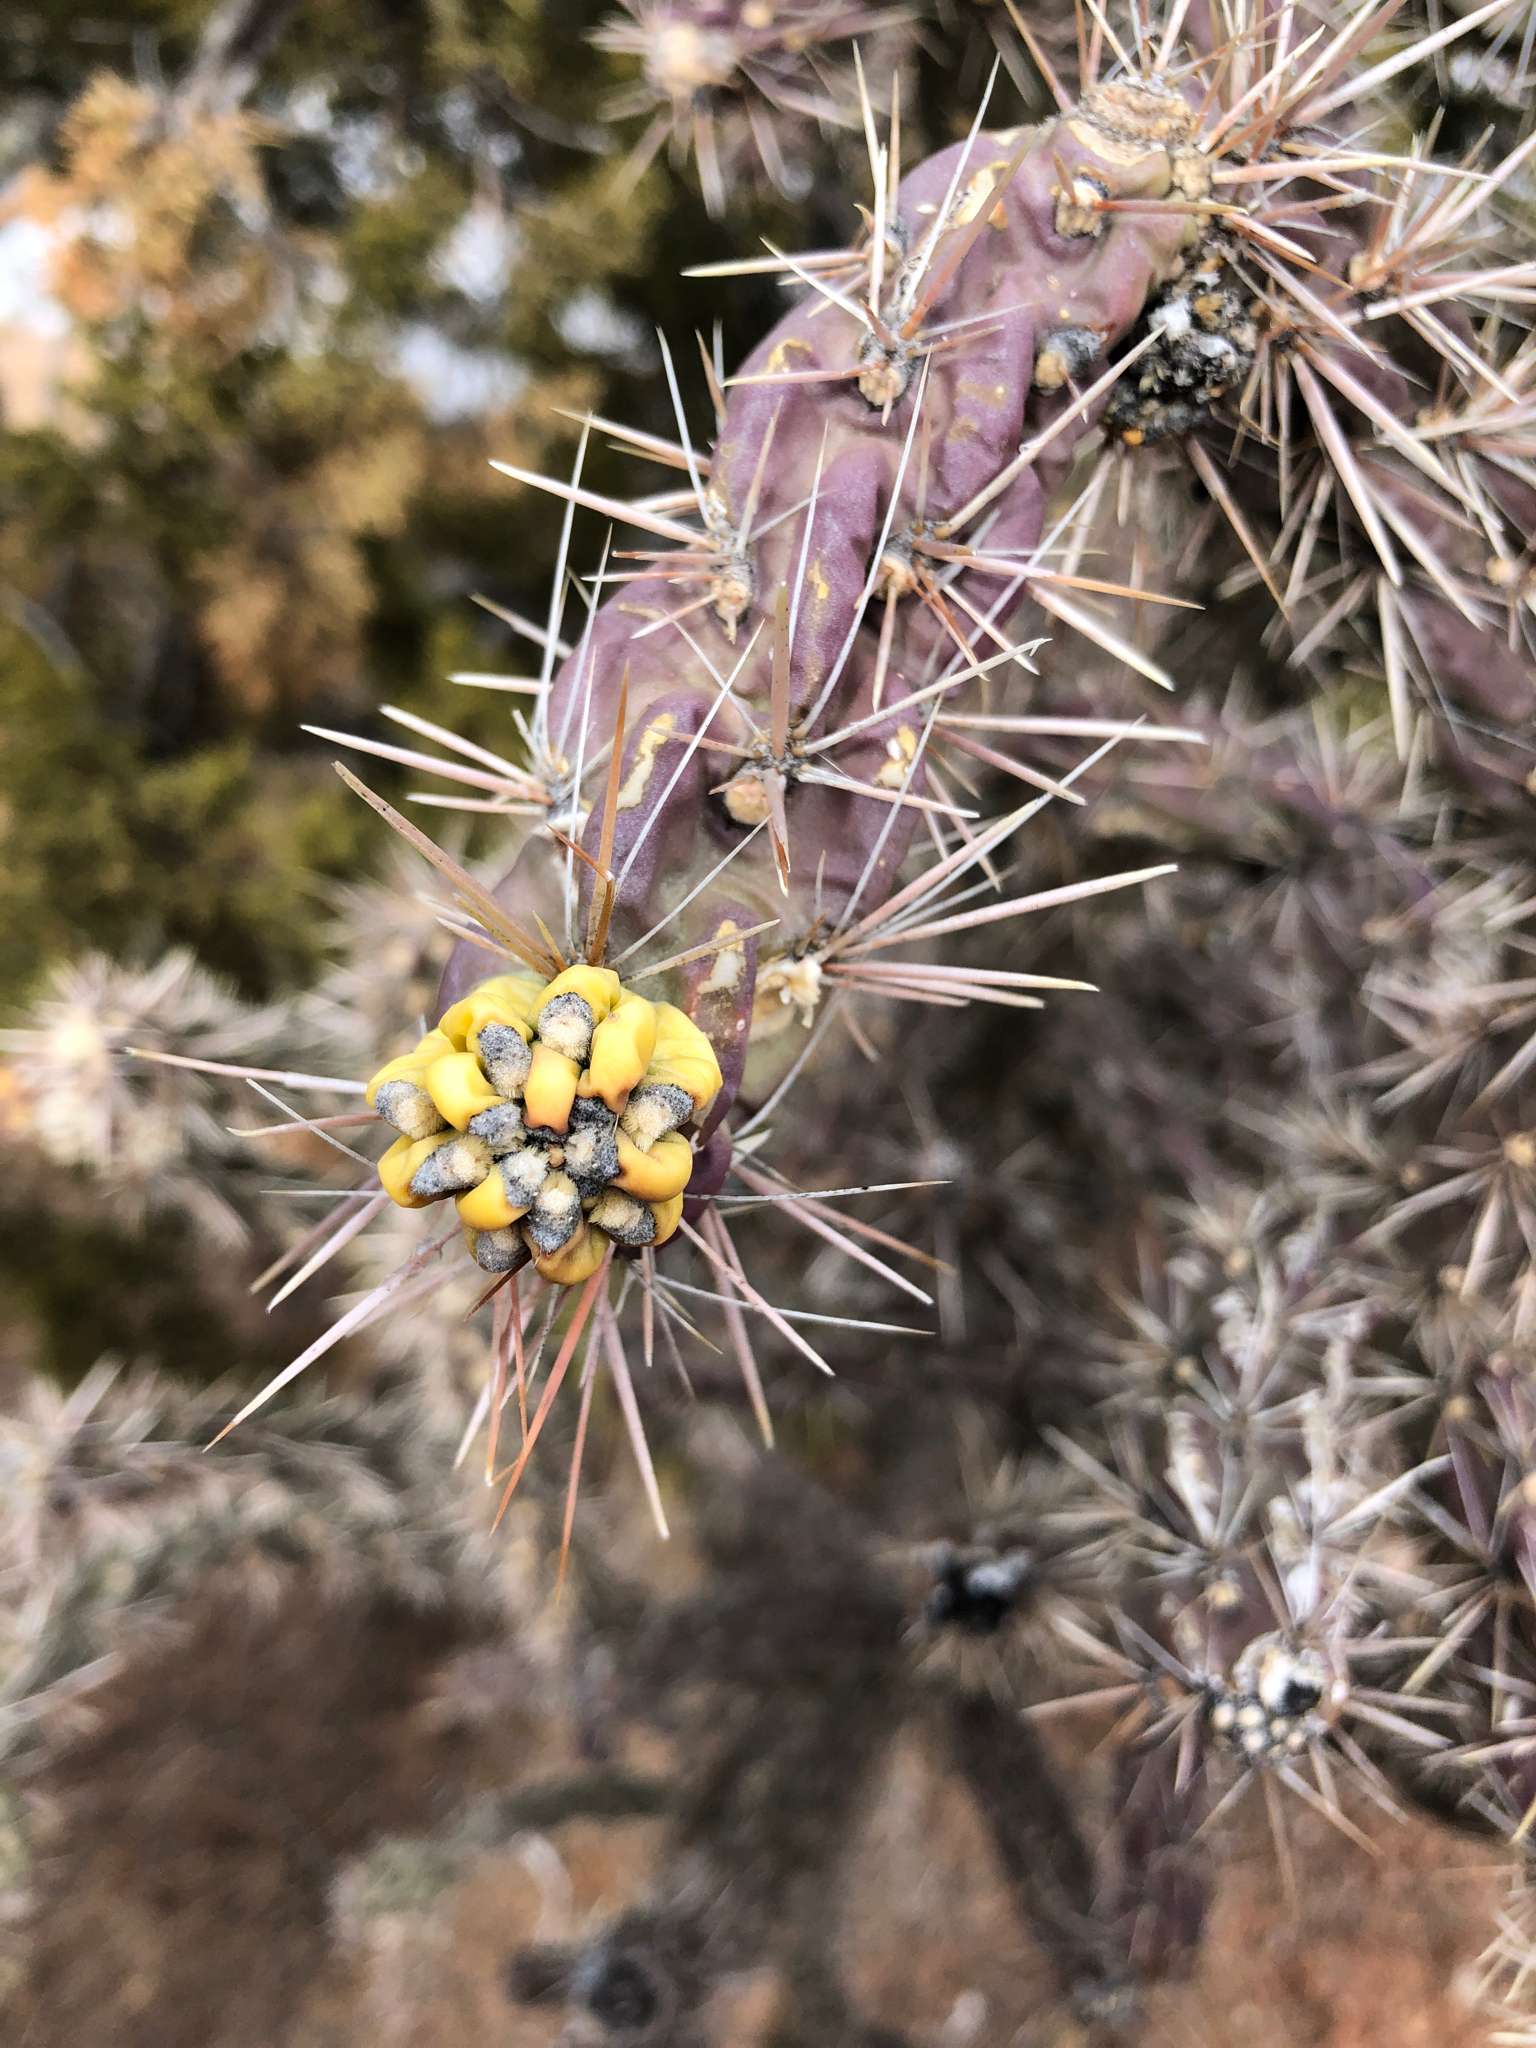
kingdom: Plantae
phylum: Tracheophyta
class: Magnoliopsida
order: Caryophyllales
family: Cactaceae
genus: Cylindropuntia
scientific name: Cylindropuntia imbricata
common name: Candelabrum cactus
